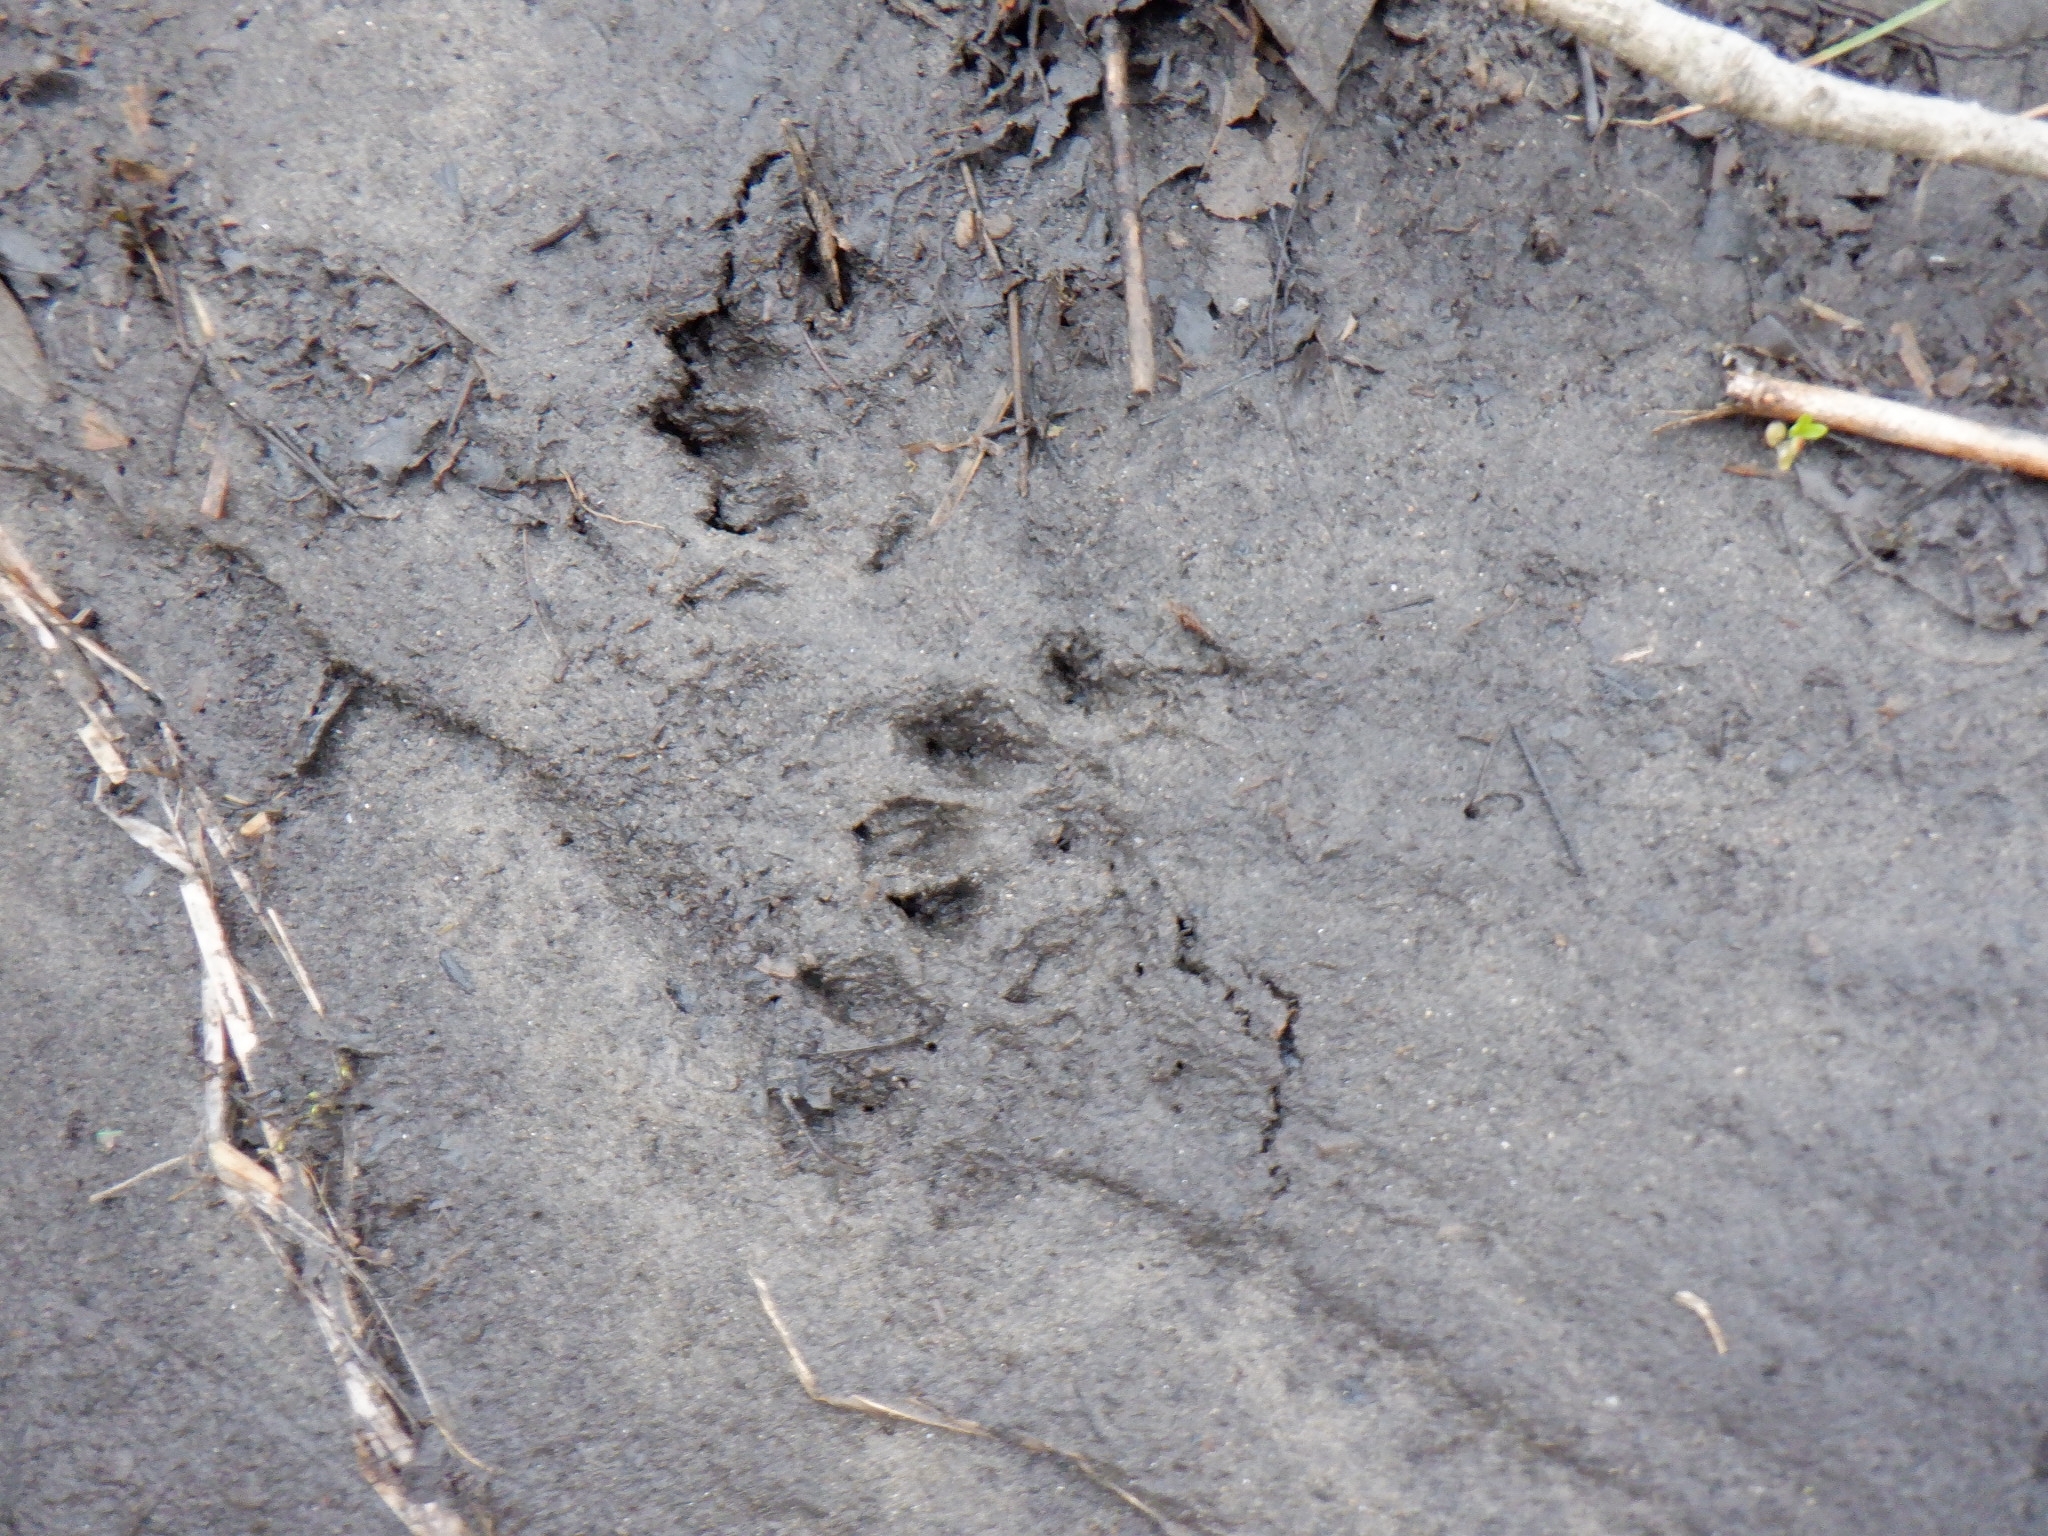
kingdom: Animalia
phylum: Chordata
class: Mammalia
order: Carnivora
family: Mustelidae
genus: Mustela
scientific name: Mustela
